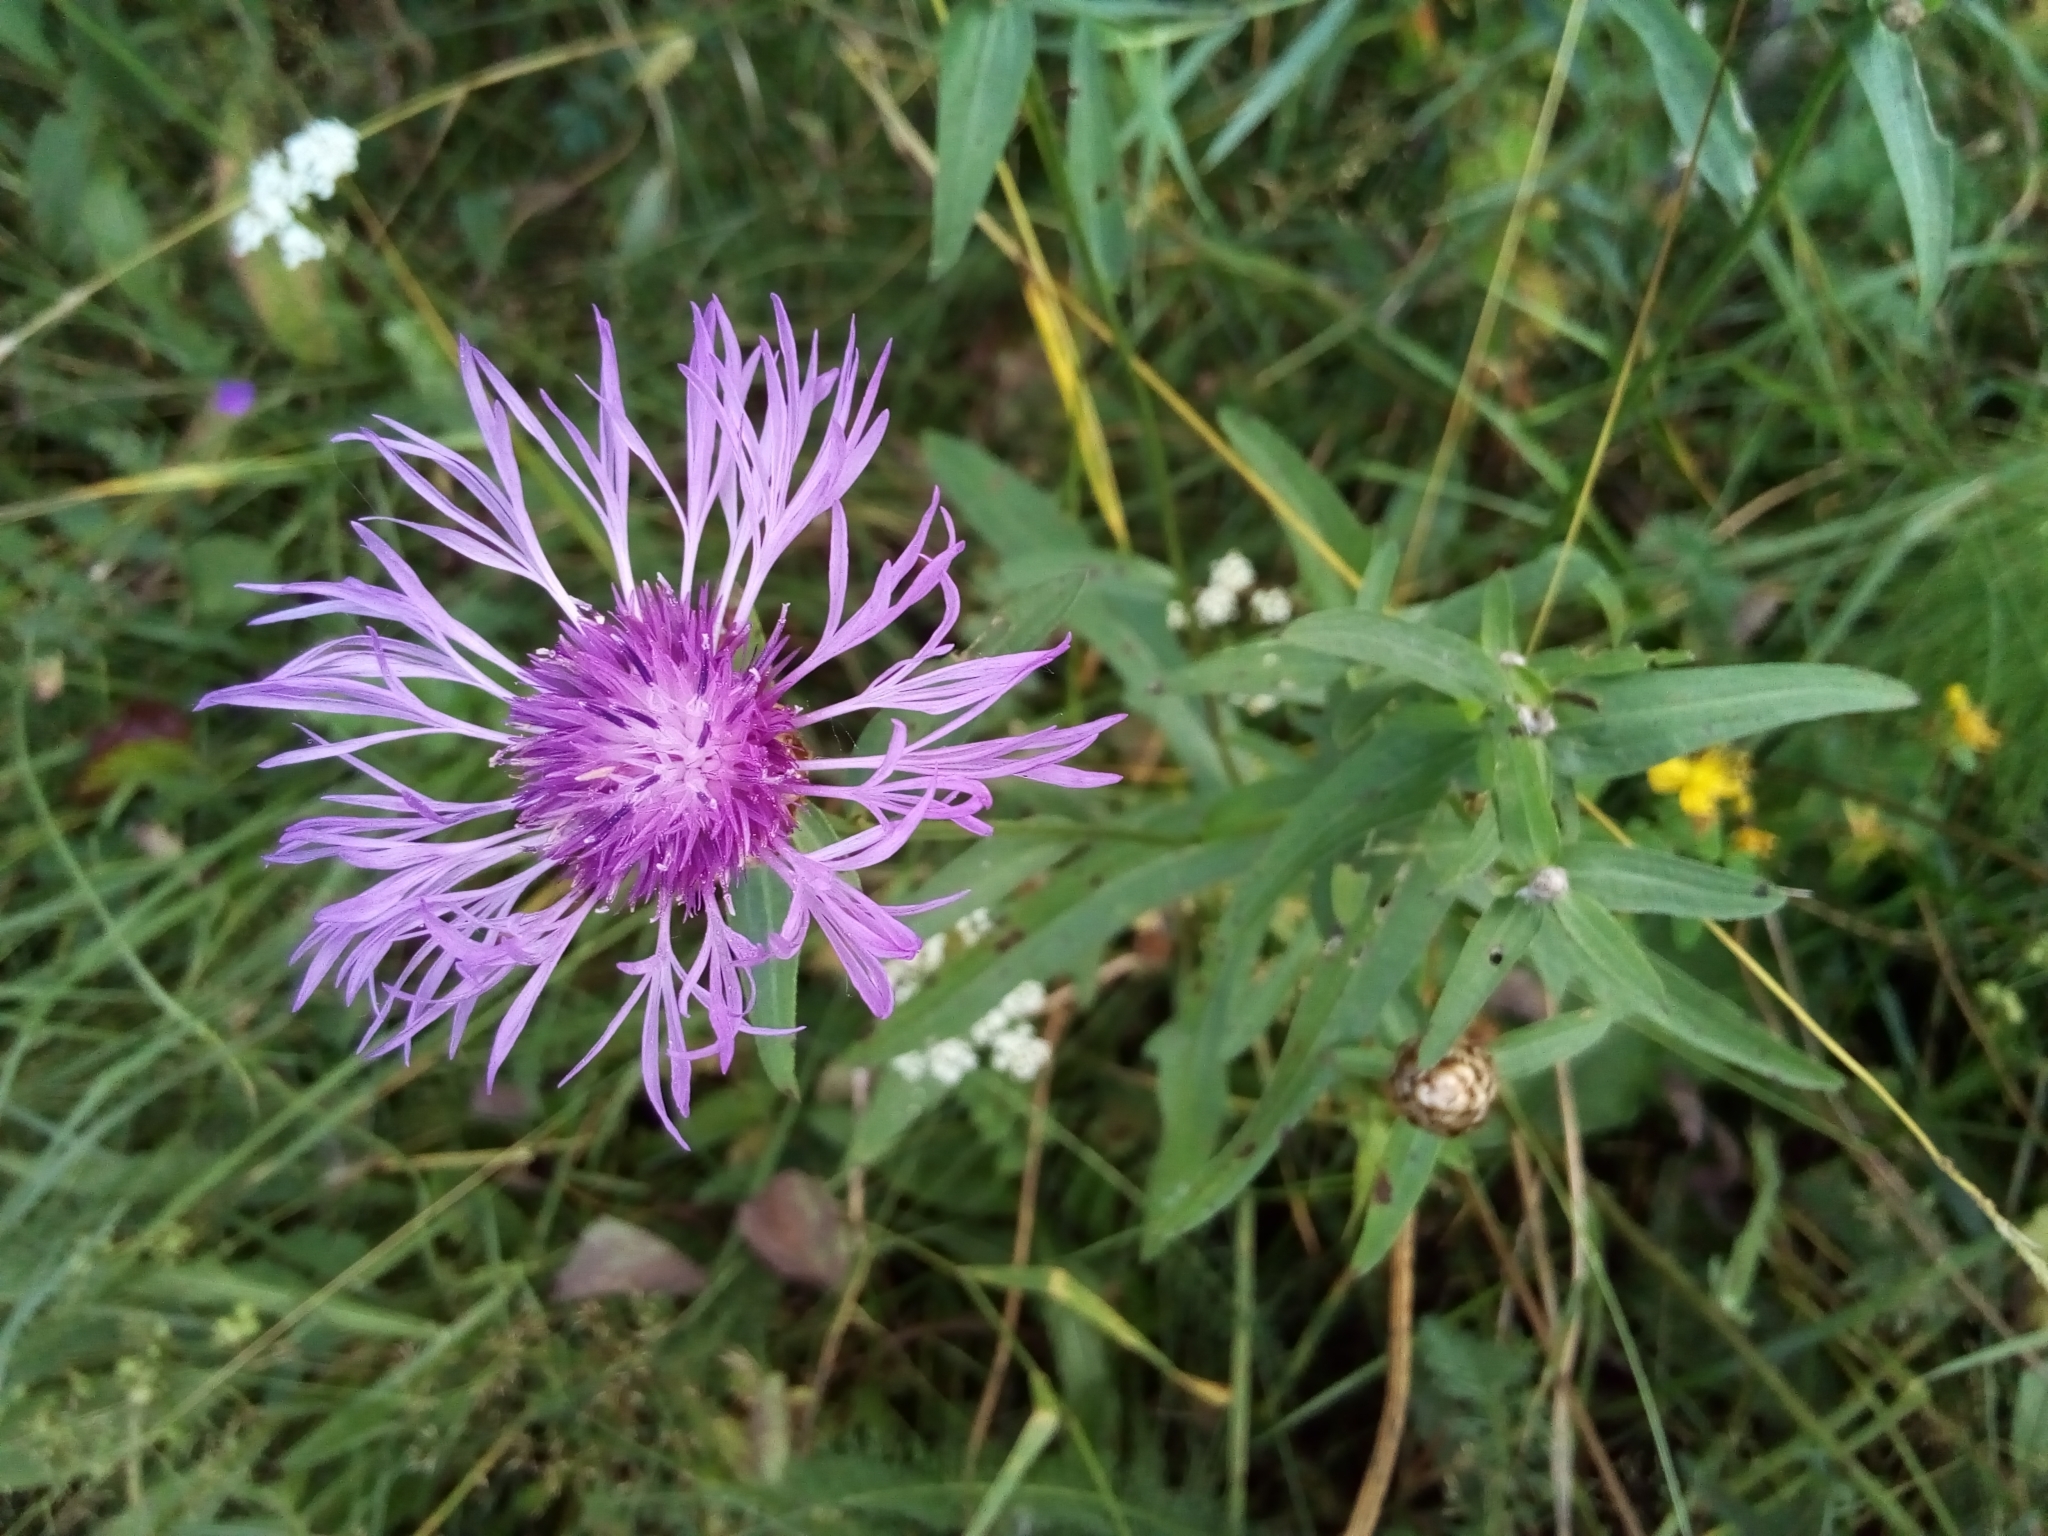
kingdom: Plantae
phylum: Tracheophyta
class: Magnoliopsida
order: Asterales
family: Asteraceae
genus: Centaurea
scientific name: Centaurea jacea
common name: Brown knapweed
